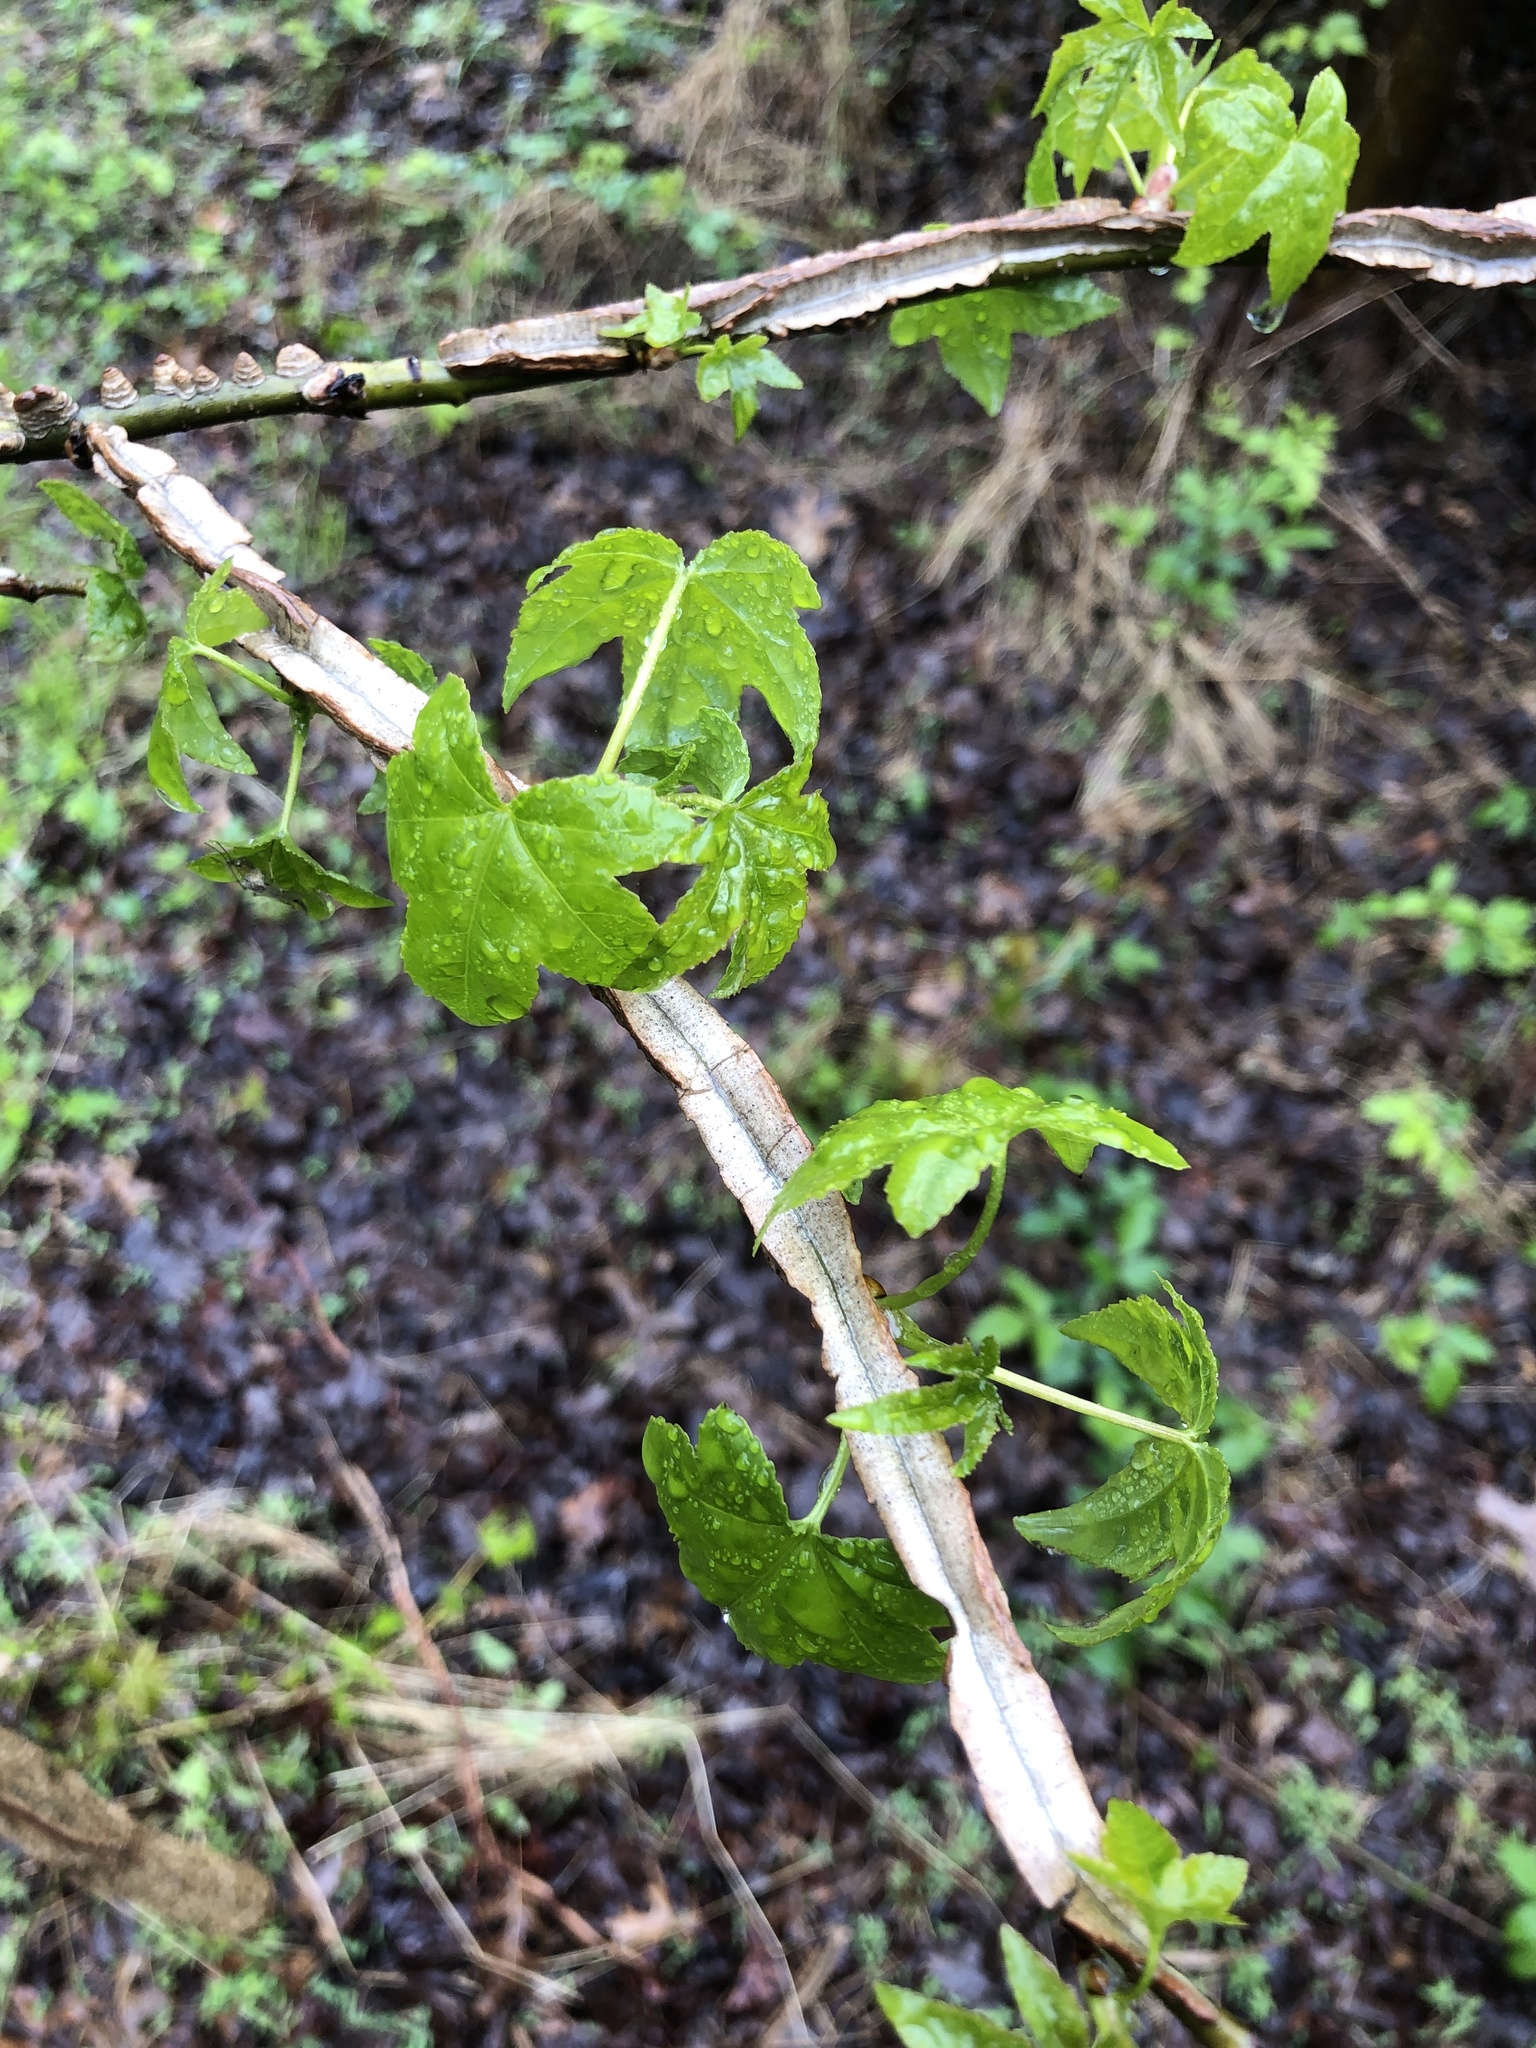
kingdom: Plantae
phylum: Tracheophyta
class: Magnoliopsida
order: Saxifragales
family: Altingiaceae
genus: Liquidambar
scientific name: Liquidambar styraciflua
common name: Sweet gum
